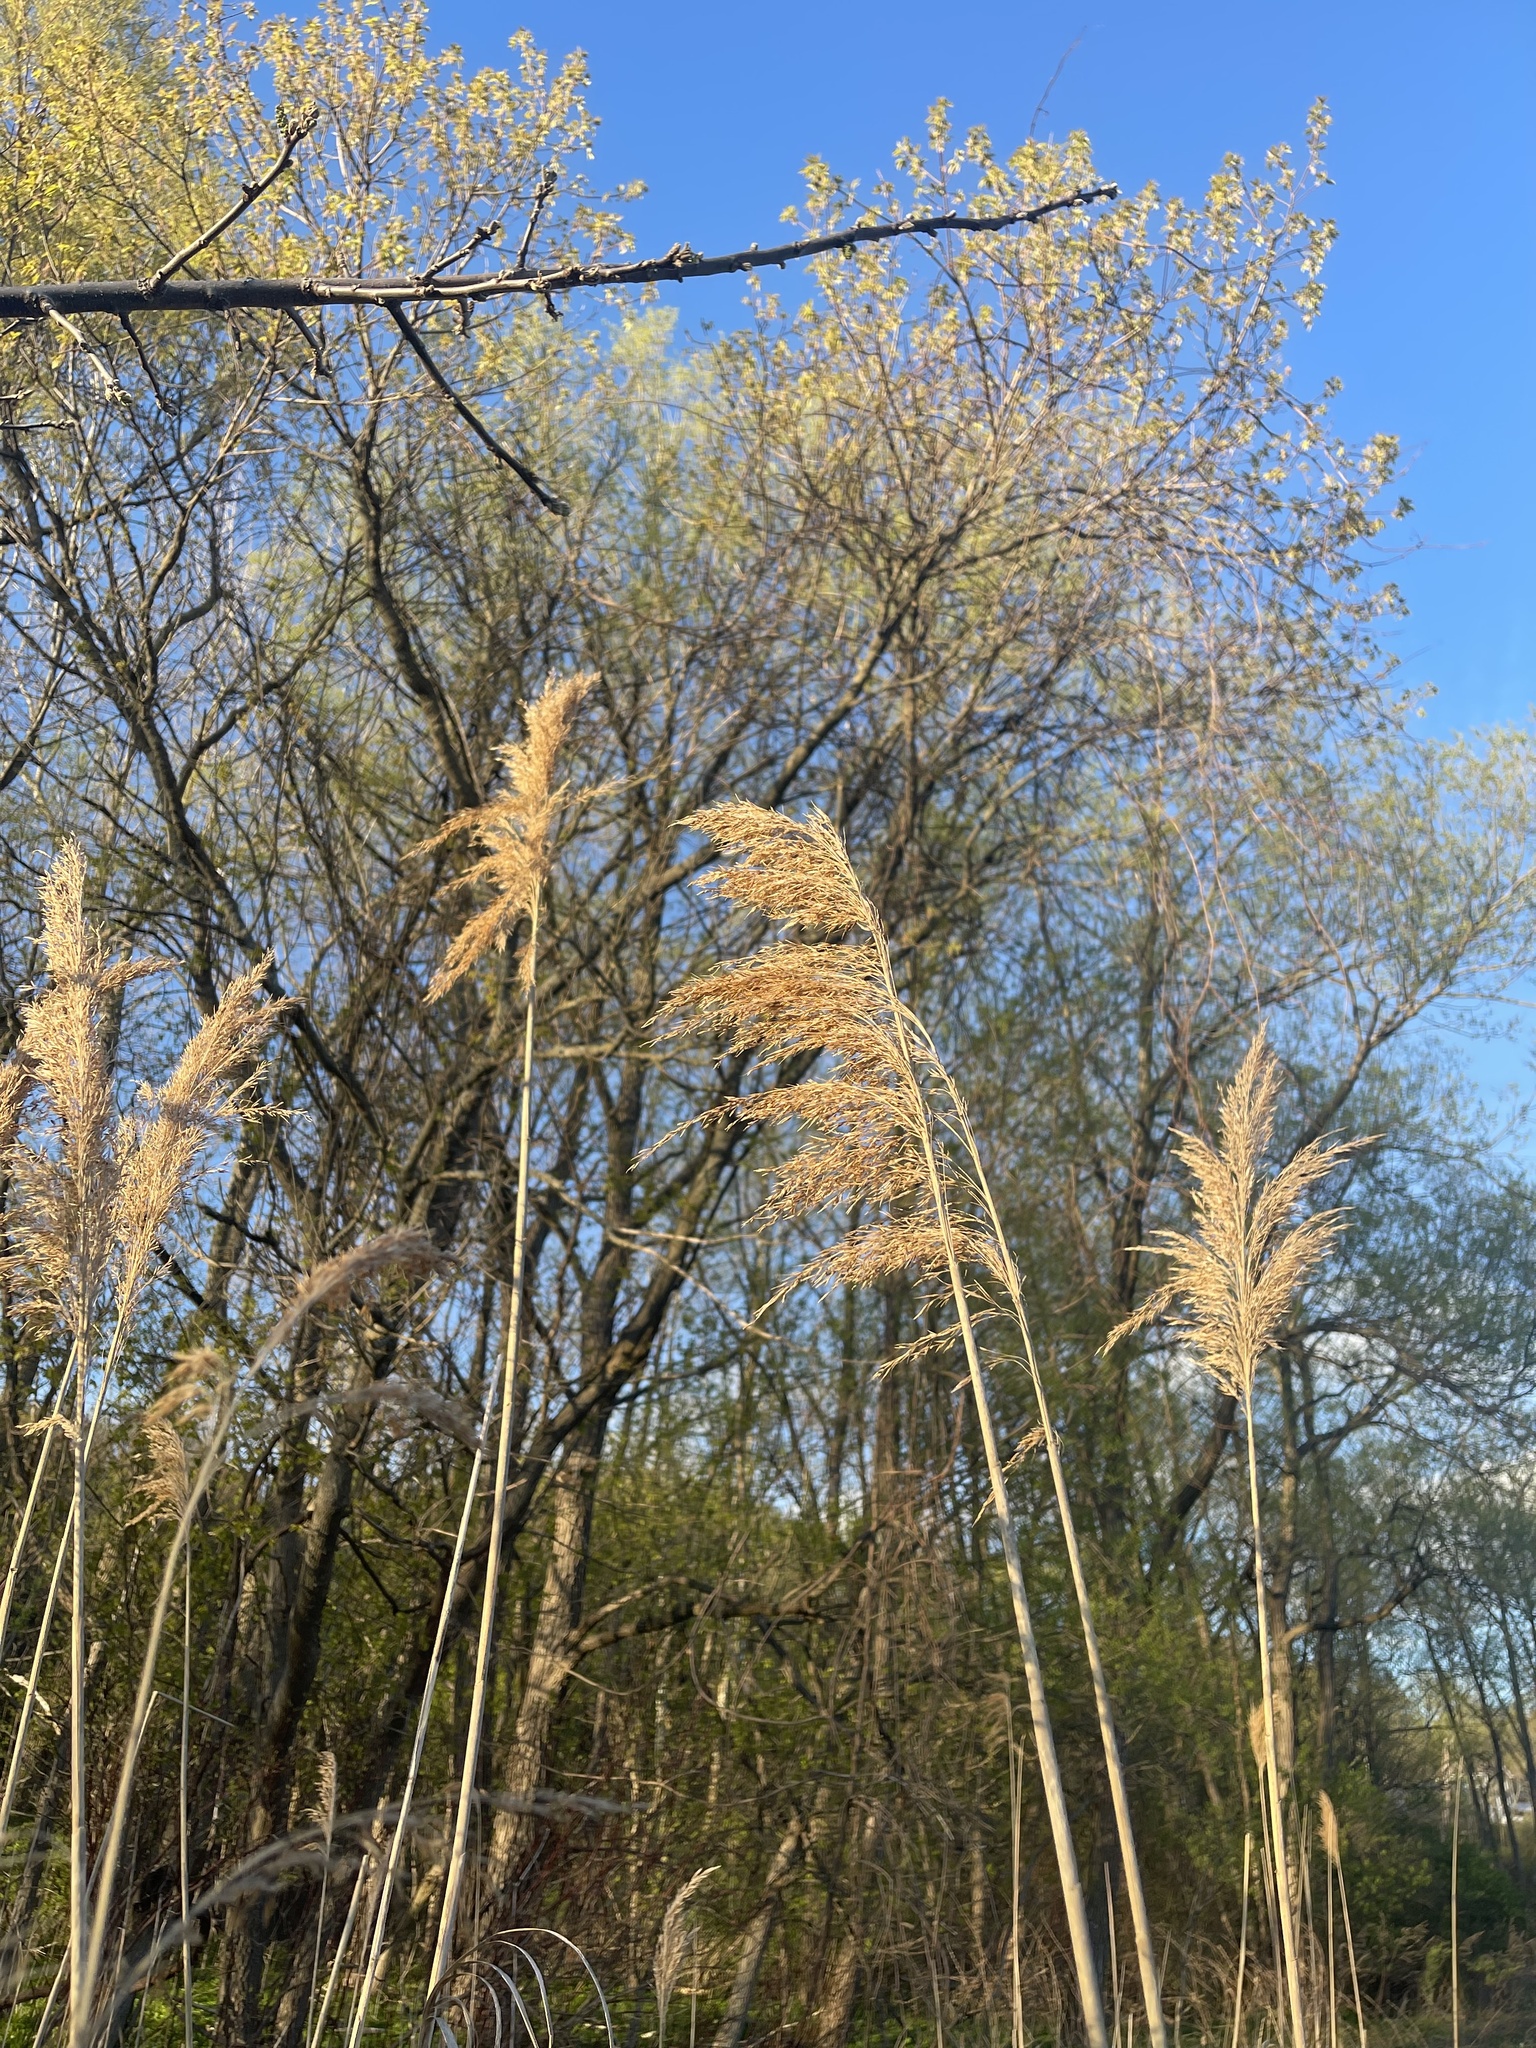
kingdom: Plantae
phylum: Tracheophyta
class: Liliopsida
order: Poales
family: Poaceae
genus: Phragmites
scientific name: Phragmites australis
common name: Common reed
